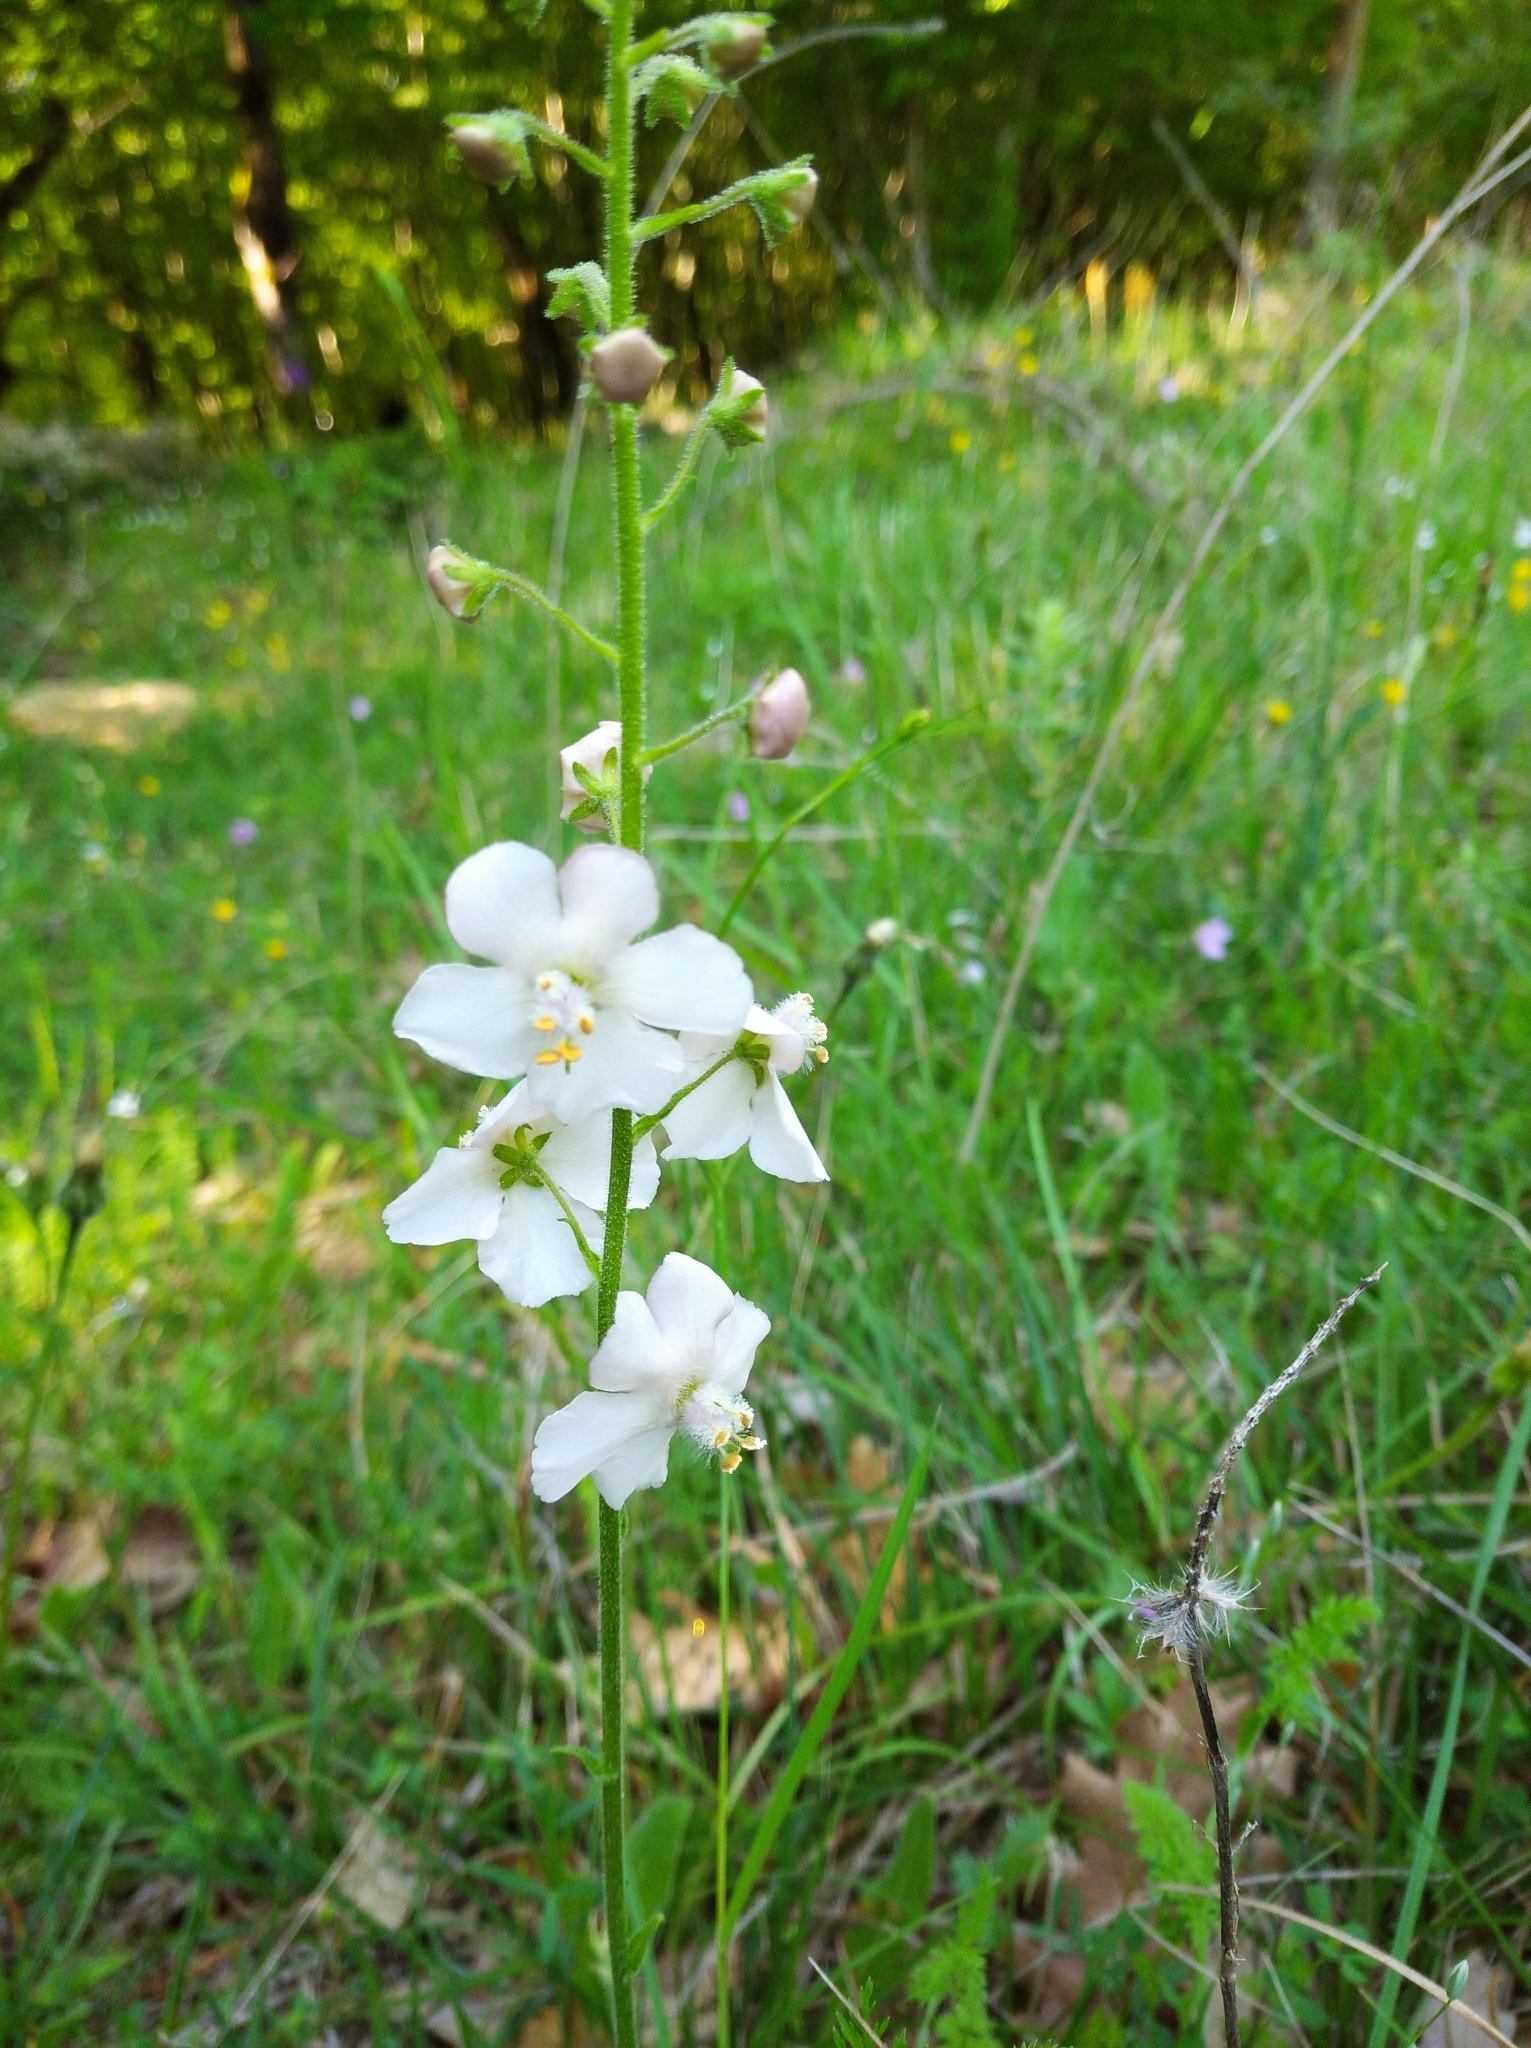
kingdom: Plantae
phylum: Tracheophyta
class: Magnoliopsida
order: Lamiales
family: Scrophulariaceae
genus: Verbascum
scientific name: Verbascum phoeniceum
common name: Purple mullein
